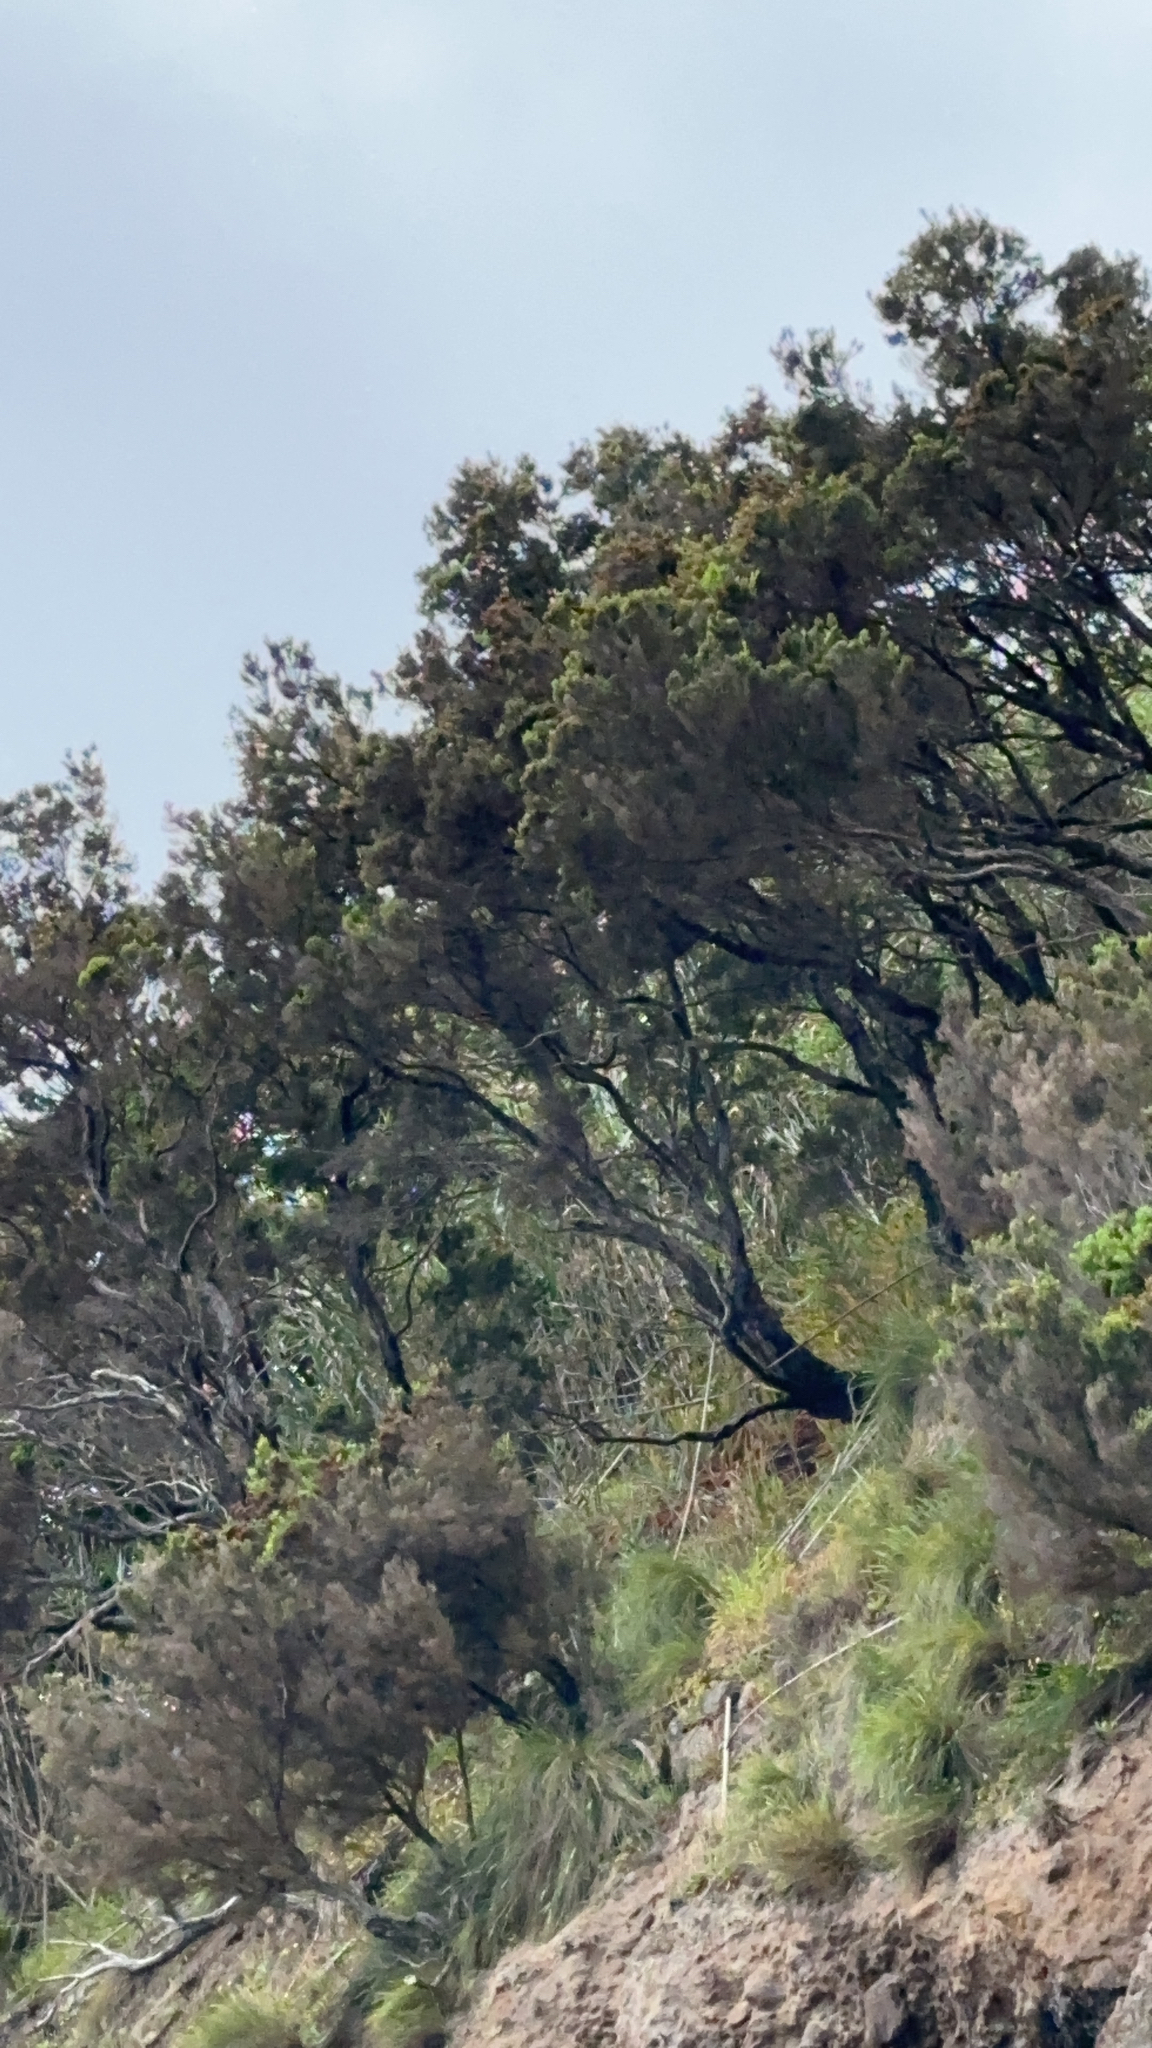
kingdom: Plantae
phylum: Tracheophyta
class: Magnoliopsida
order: Ericales
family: Ericaceae
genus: Erica
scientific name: Erica azorica
